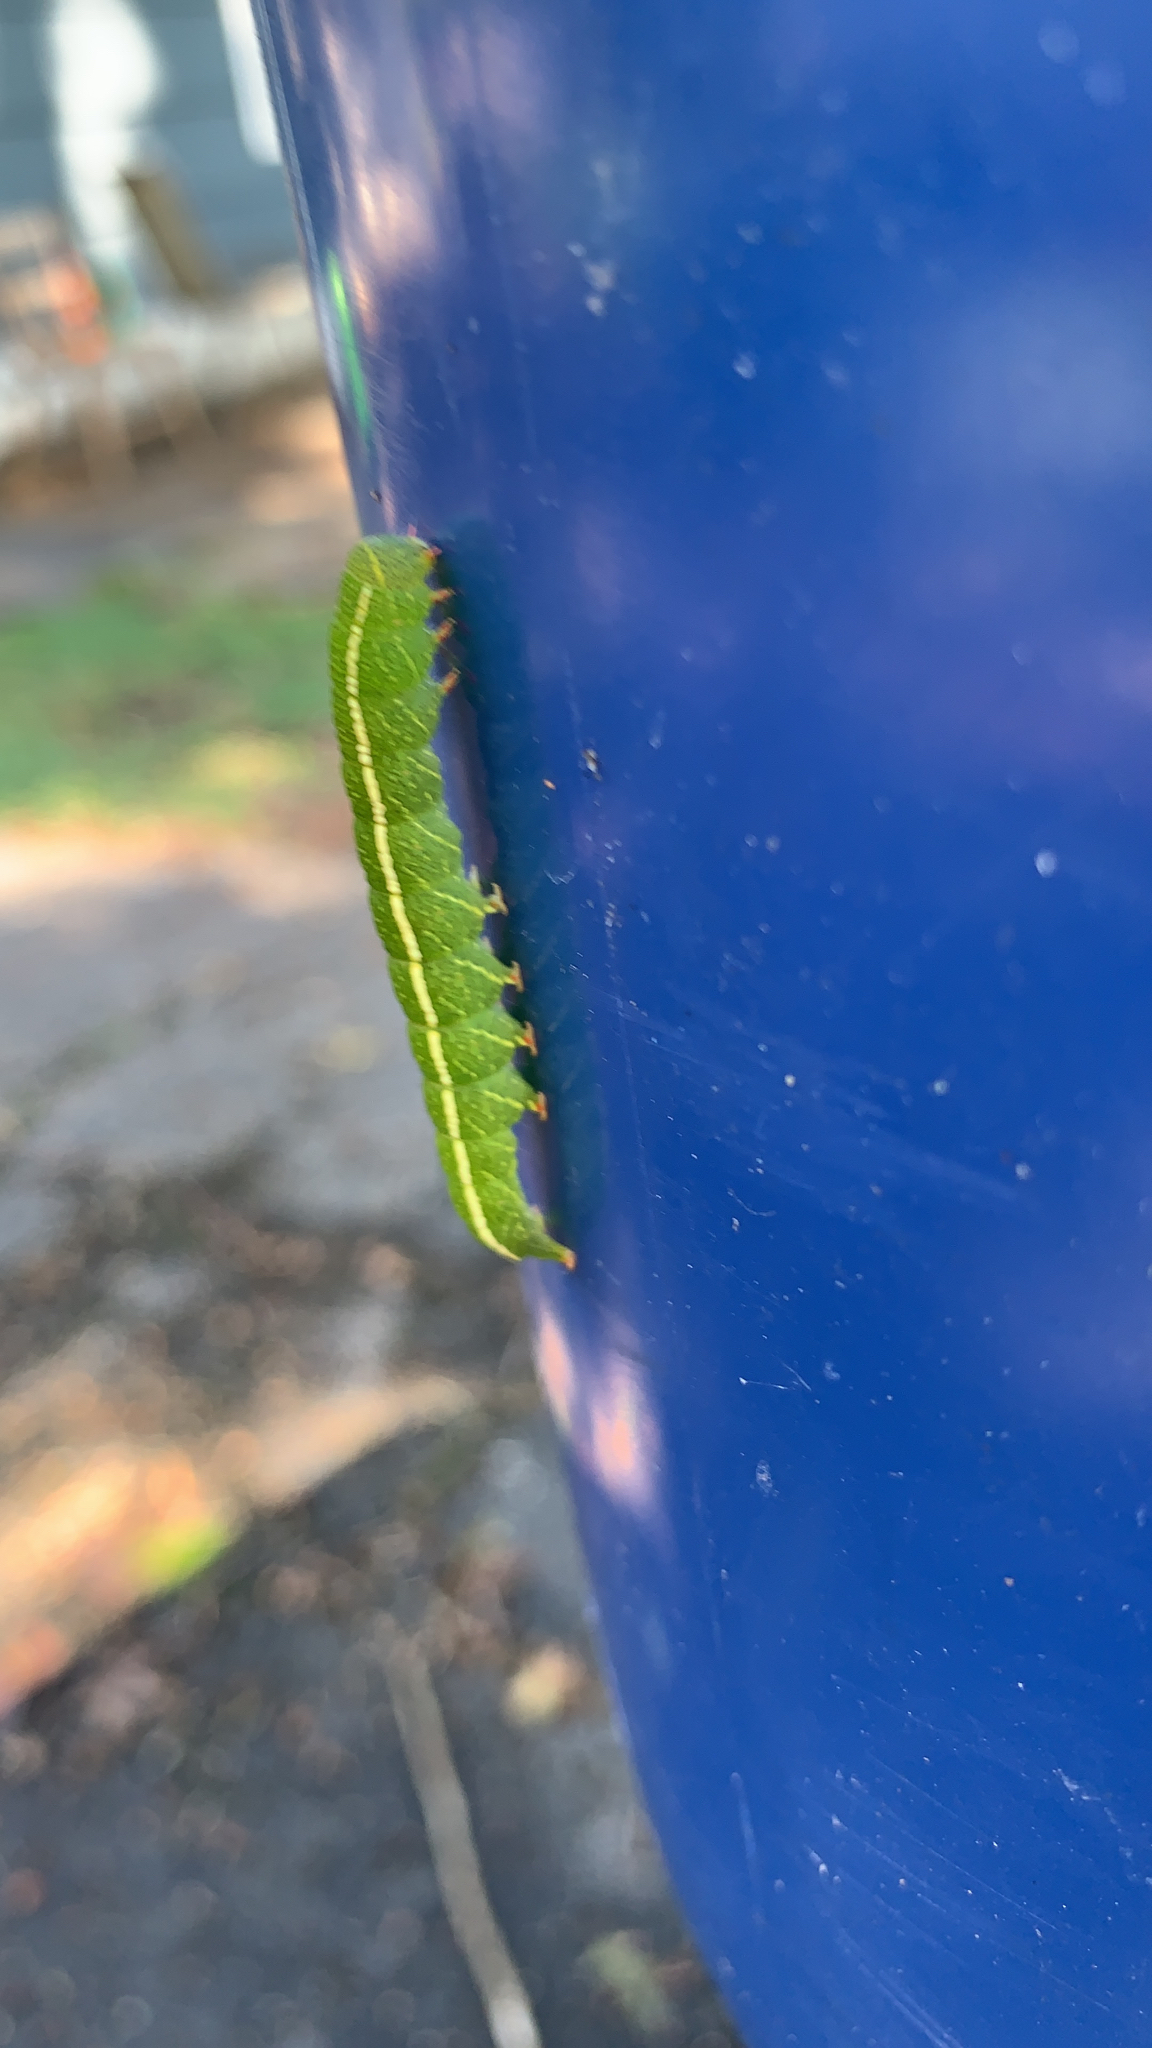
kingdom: Animalia
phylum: Arthropoda
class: Insecta
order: Lepidoptera
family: Erebidae
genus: Panopoda
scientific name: Panopoda rufimargo
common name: Red-lined panopoda moth
